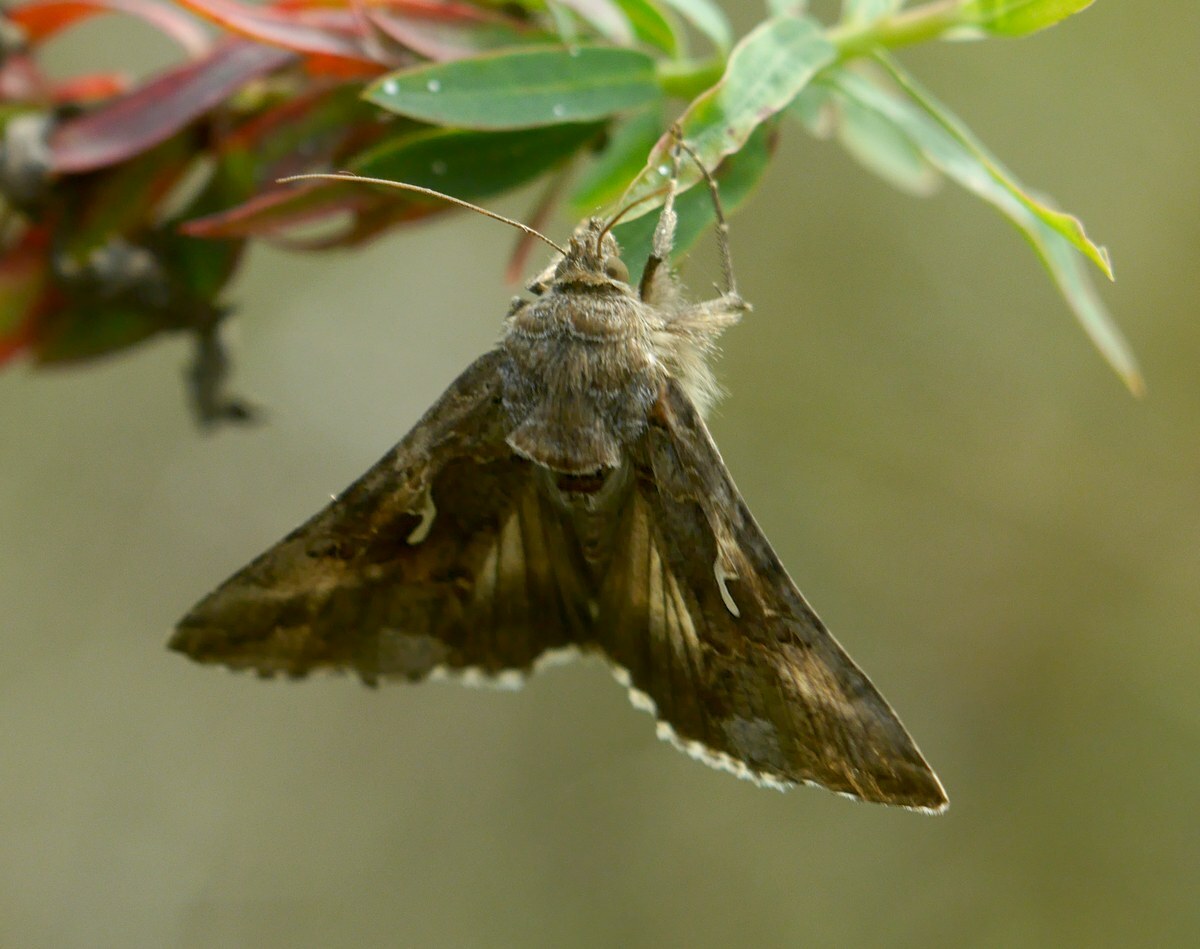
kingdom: Animalia
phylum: Arthropoda
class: Insecta
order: Lepidoptera
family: Noctuidae
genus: Autographa
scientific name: Autographa gamma
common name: Silver y
